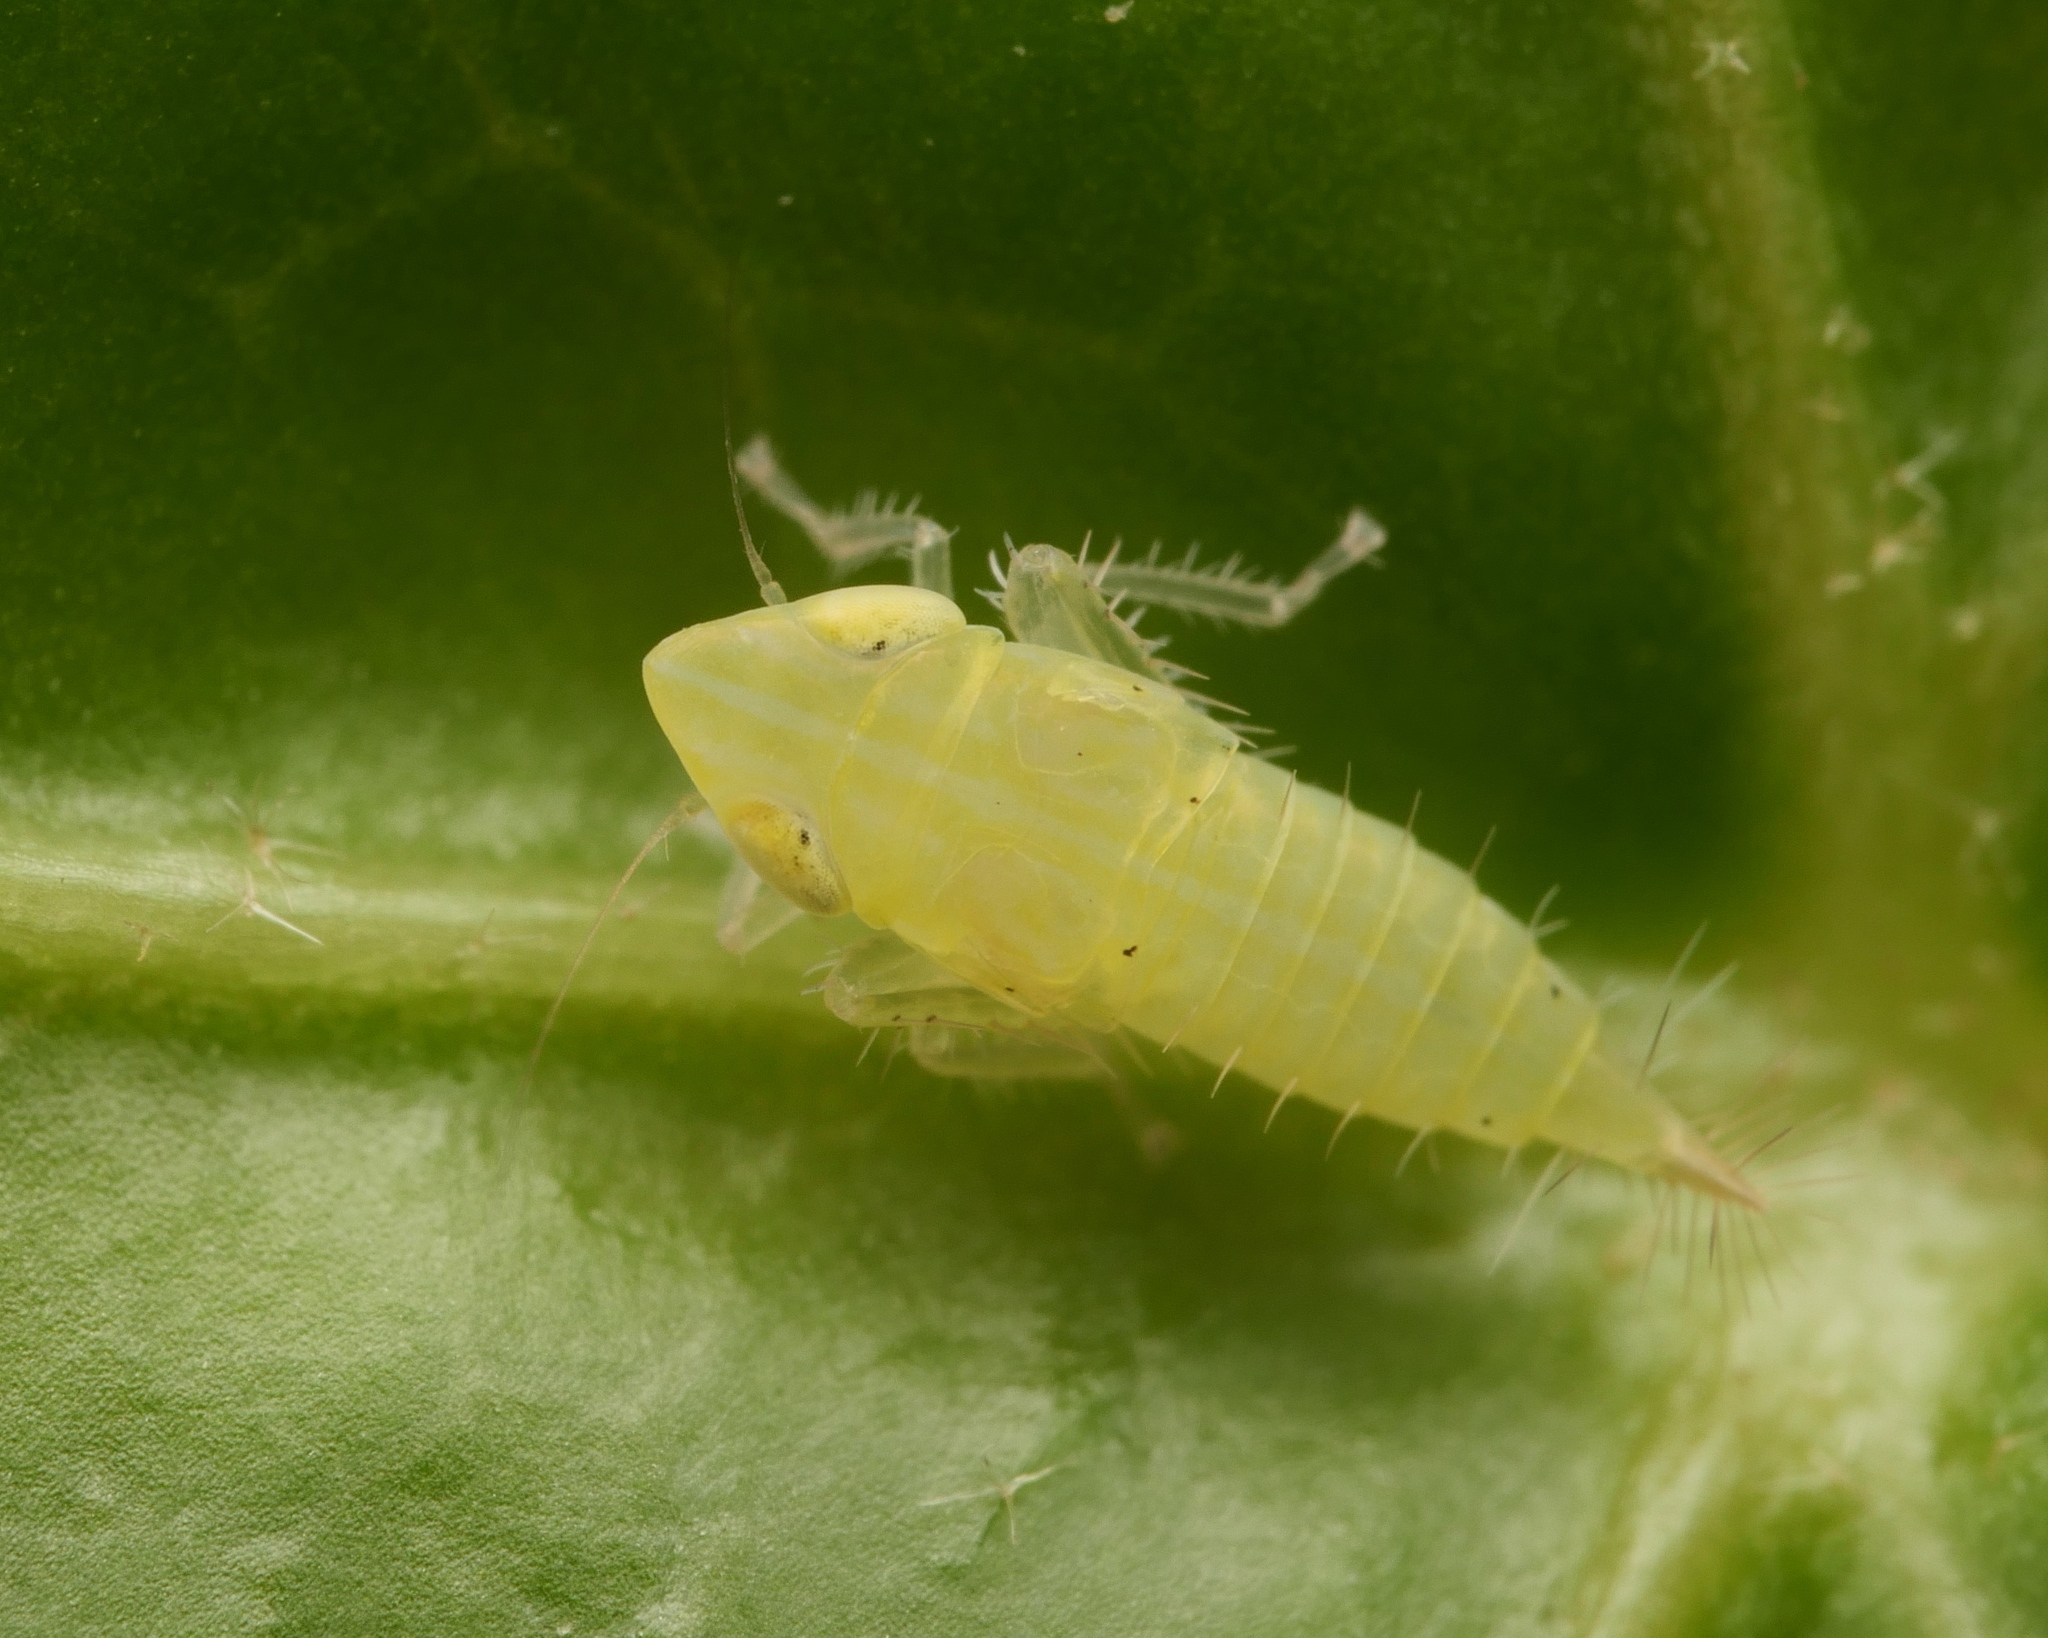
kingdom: Animalia
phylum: Arthropoda
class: Insecta
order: Hemiptera
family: Cicadellidae
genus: Synophropsis
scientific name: Synophropsis lauri
